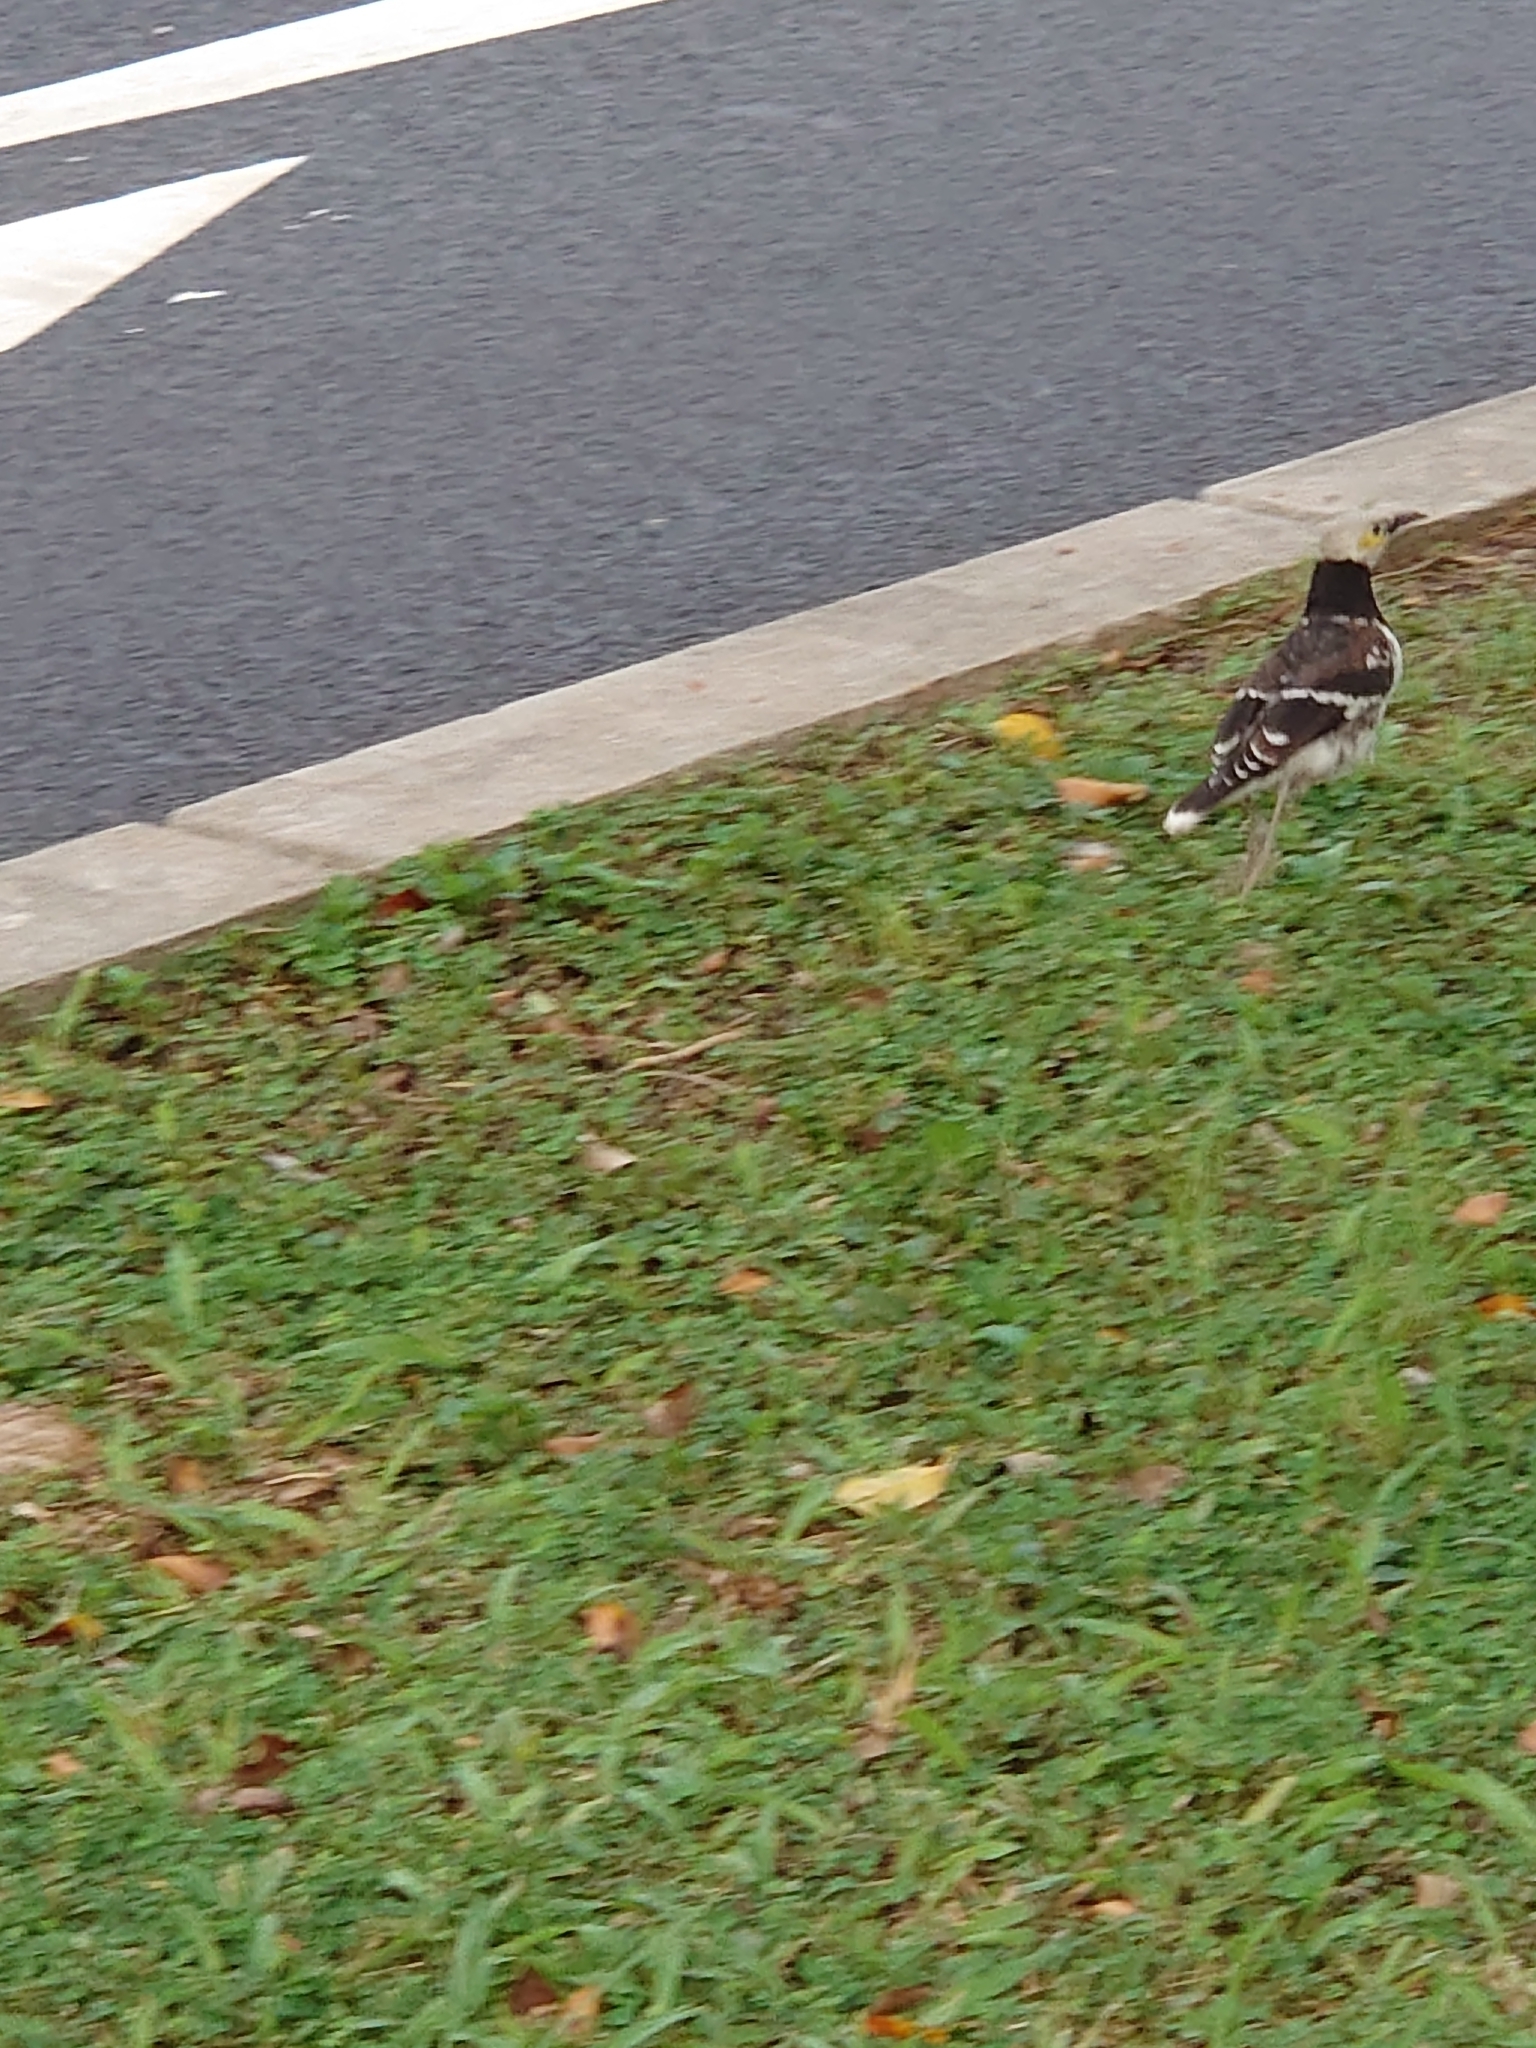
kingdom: Animalia
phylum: Chordata
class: Aves
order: Passeriformes
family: Sturnidae
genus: Gracupica
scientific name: Gracupica nigricollis
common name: Black-collared starling
